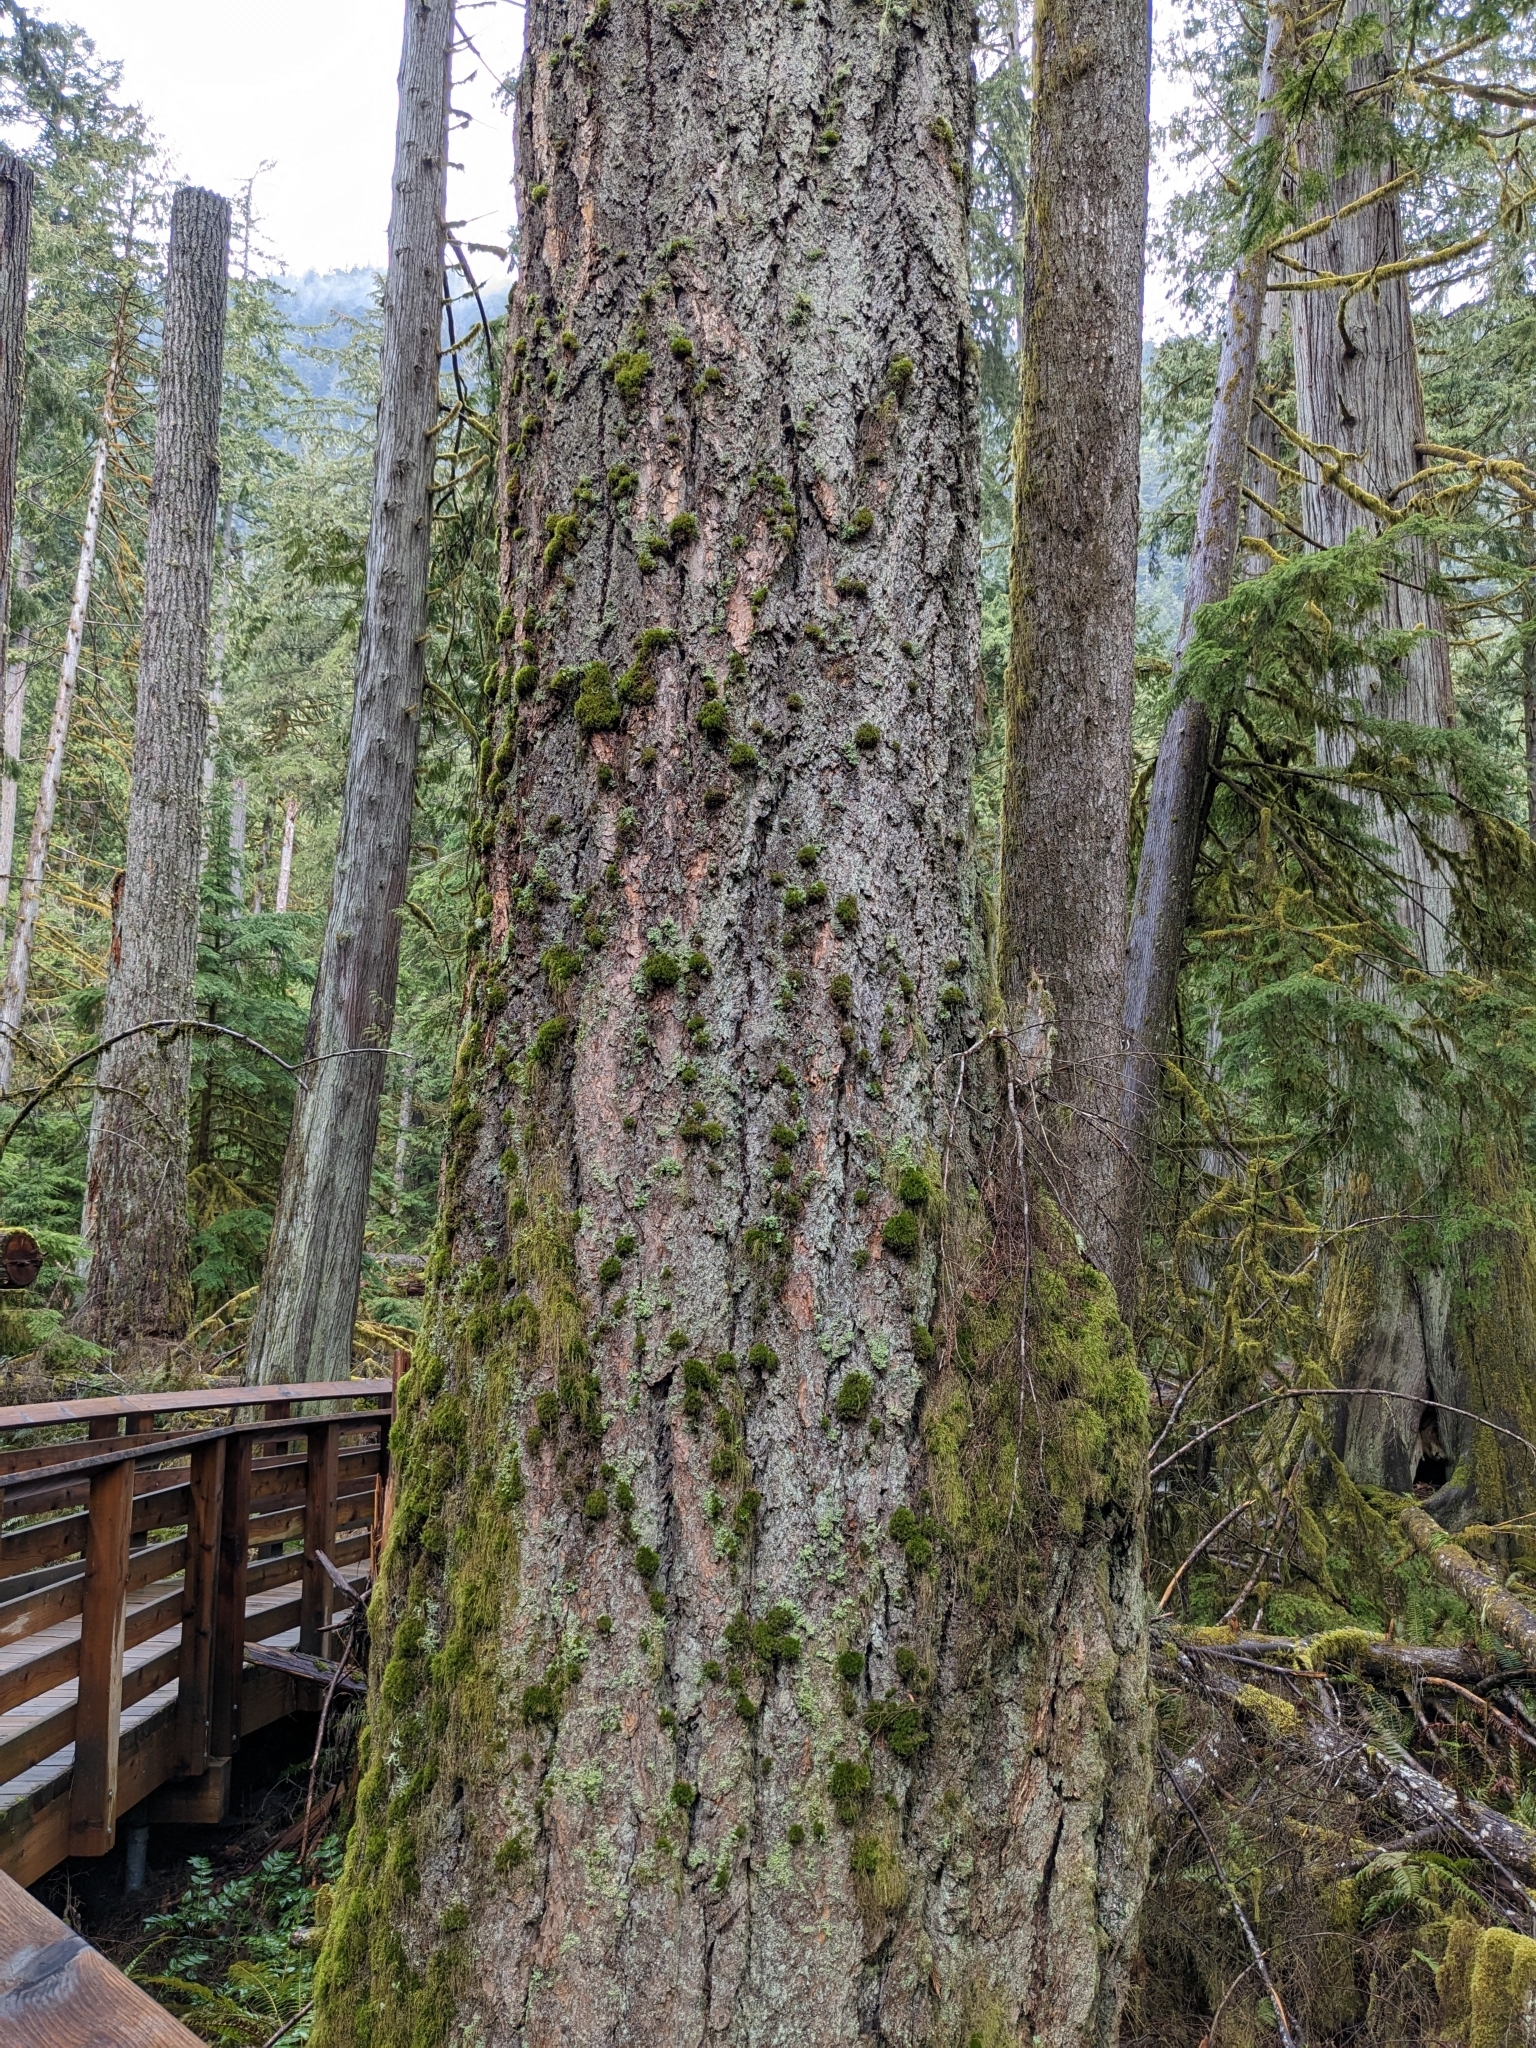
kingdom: Plantae
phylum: Tracheophyta
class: Pinopsida
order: Pinales
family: Pinaceae
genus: Pseudotsuga
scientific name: Pseudotsuga menziesii
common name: Douglas fir
